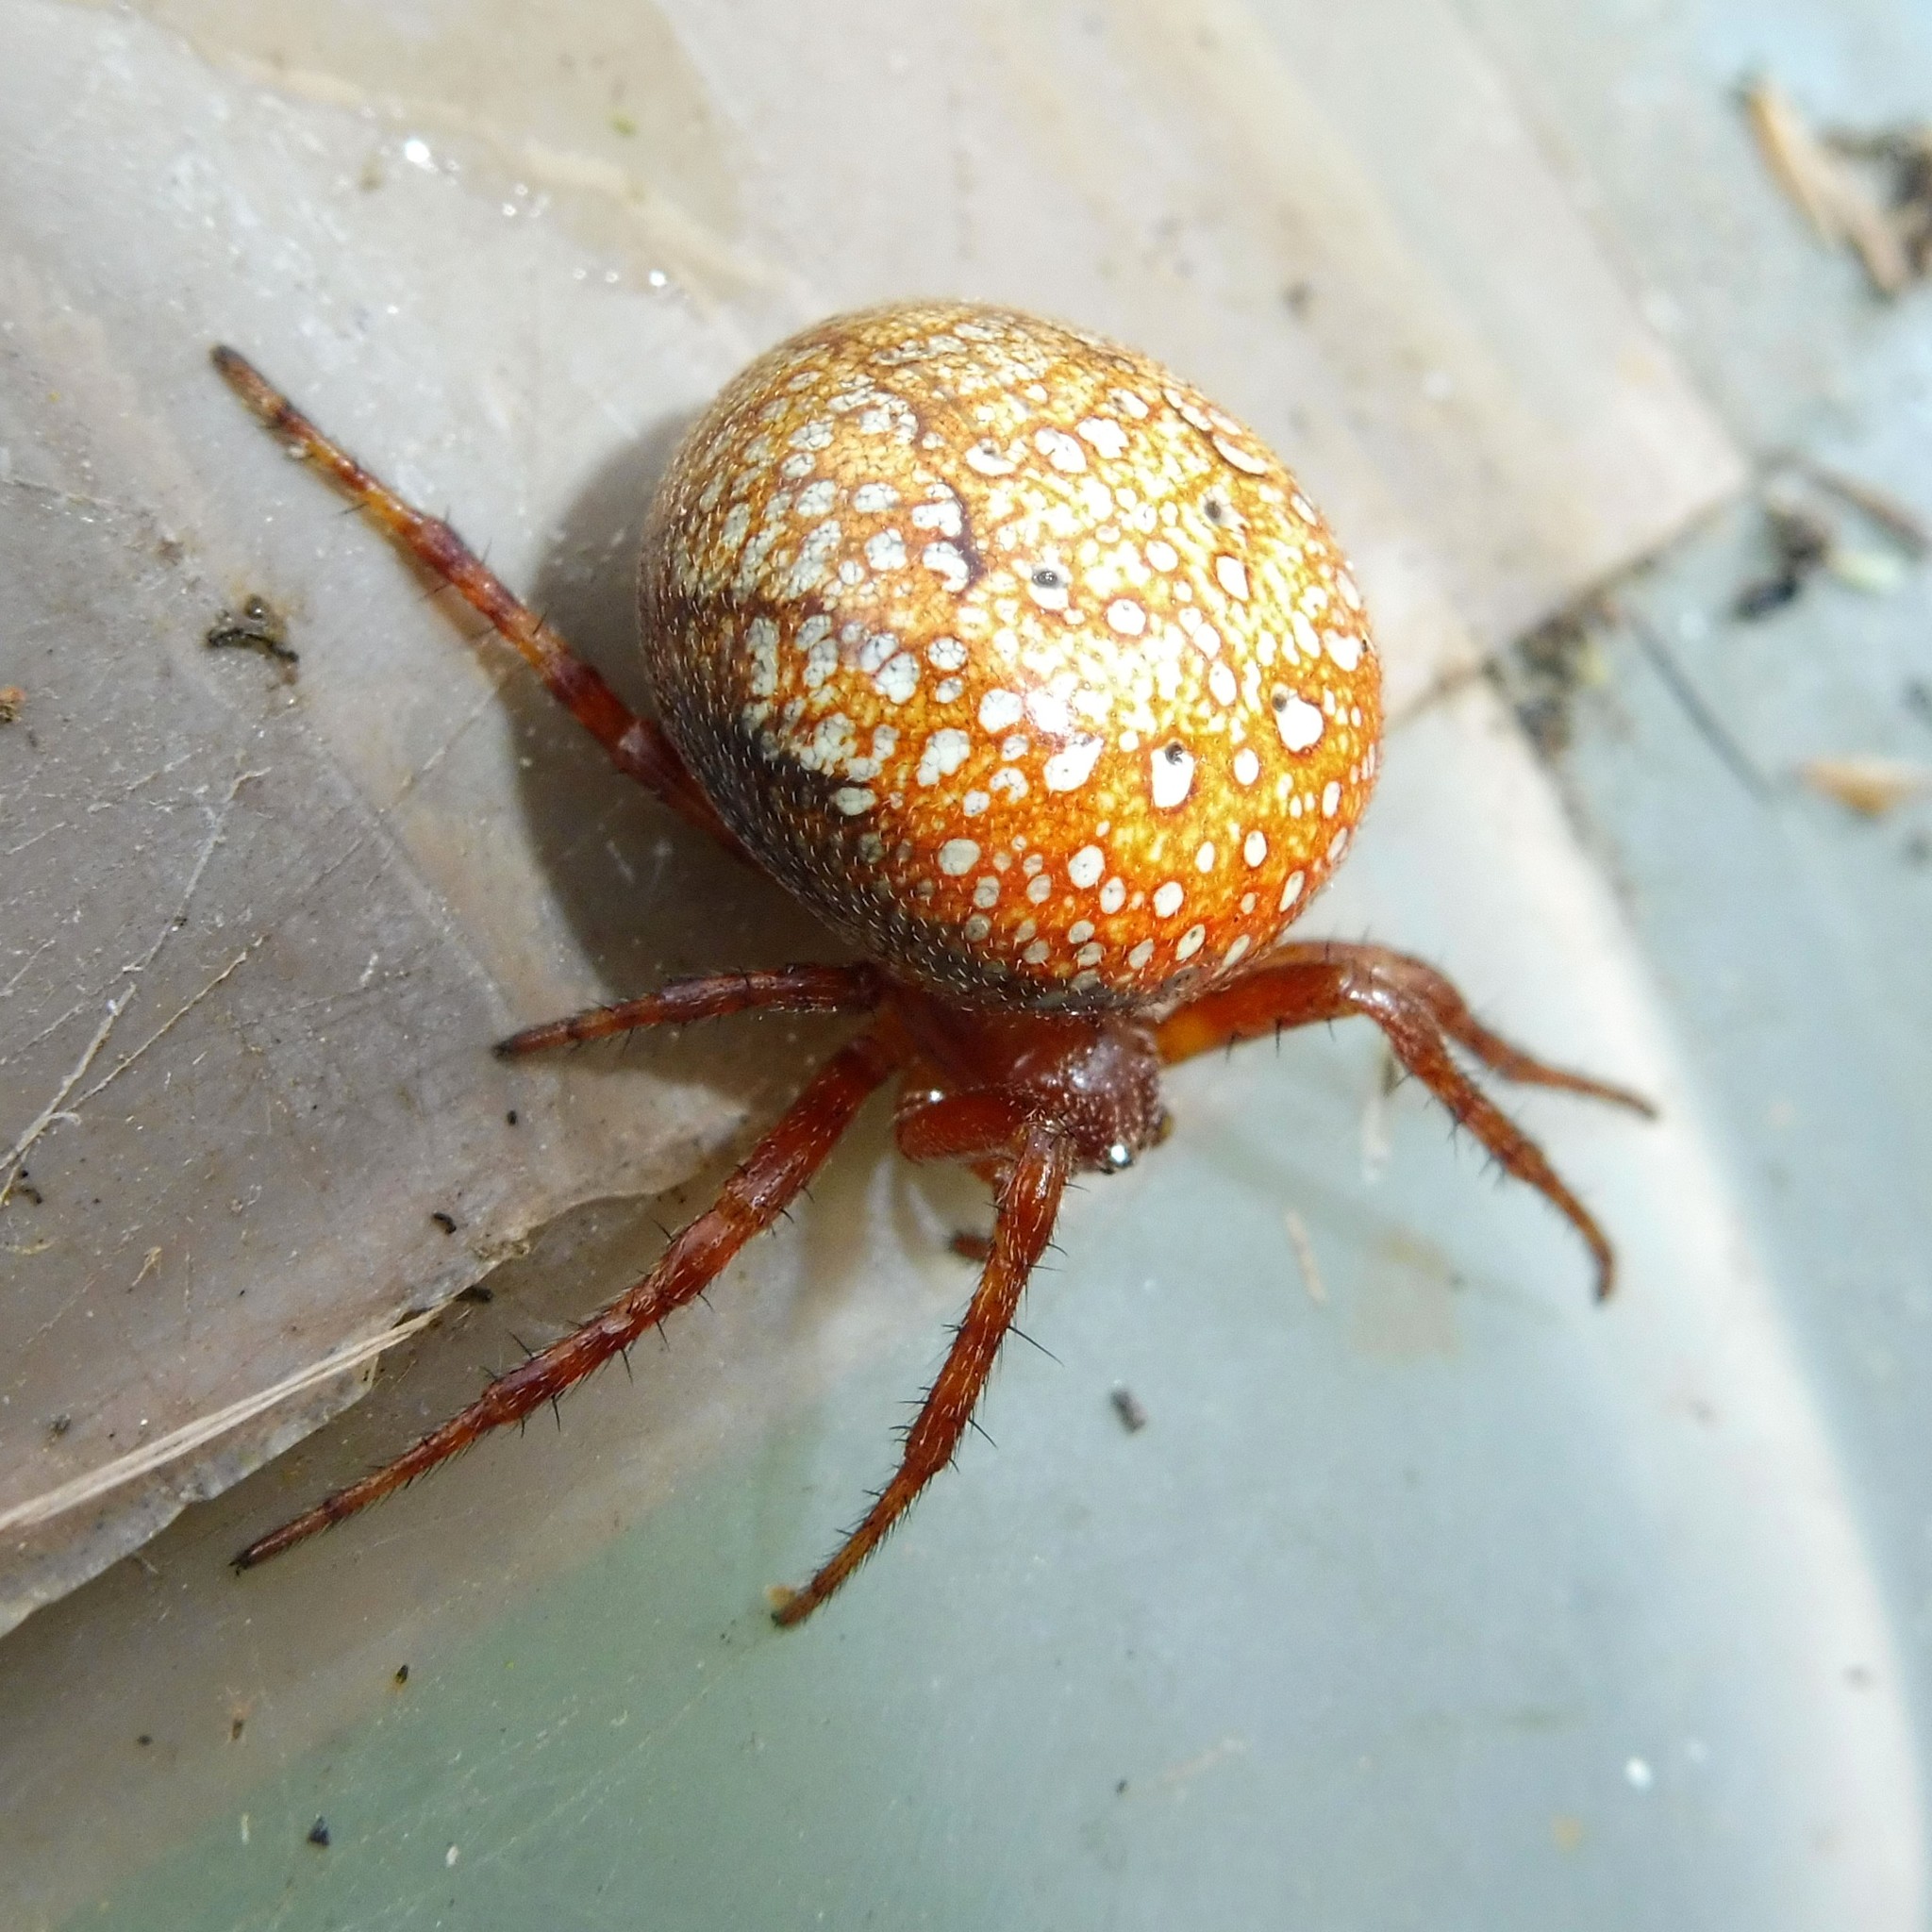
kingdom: Animalia
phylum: Arthropoda
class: Arachnida
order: Araneae
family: Araneidae
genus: Araneus
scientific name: Araneus alsine
